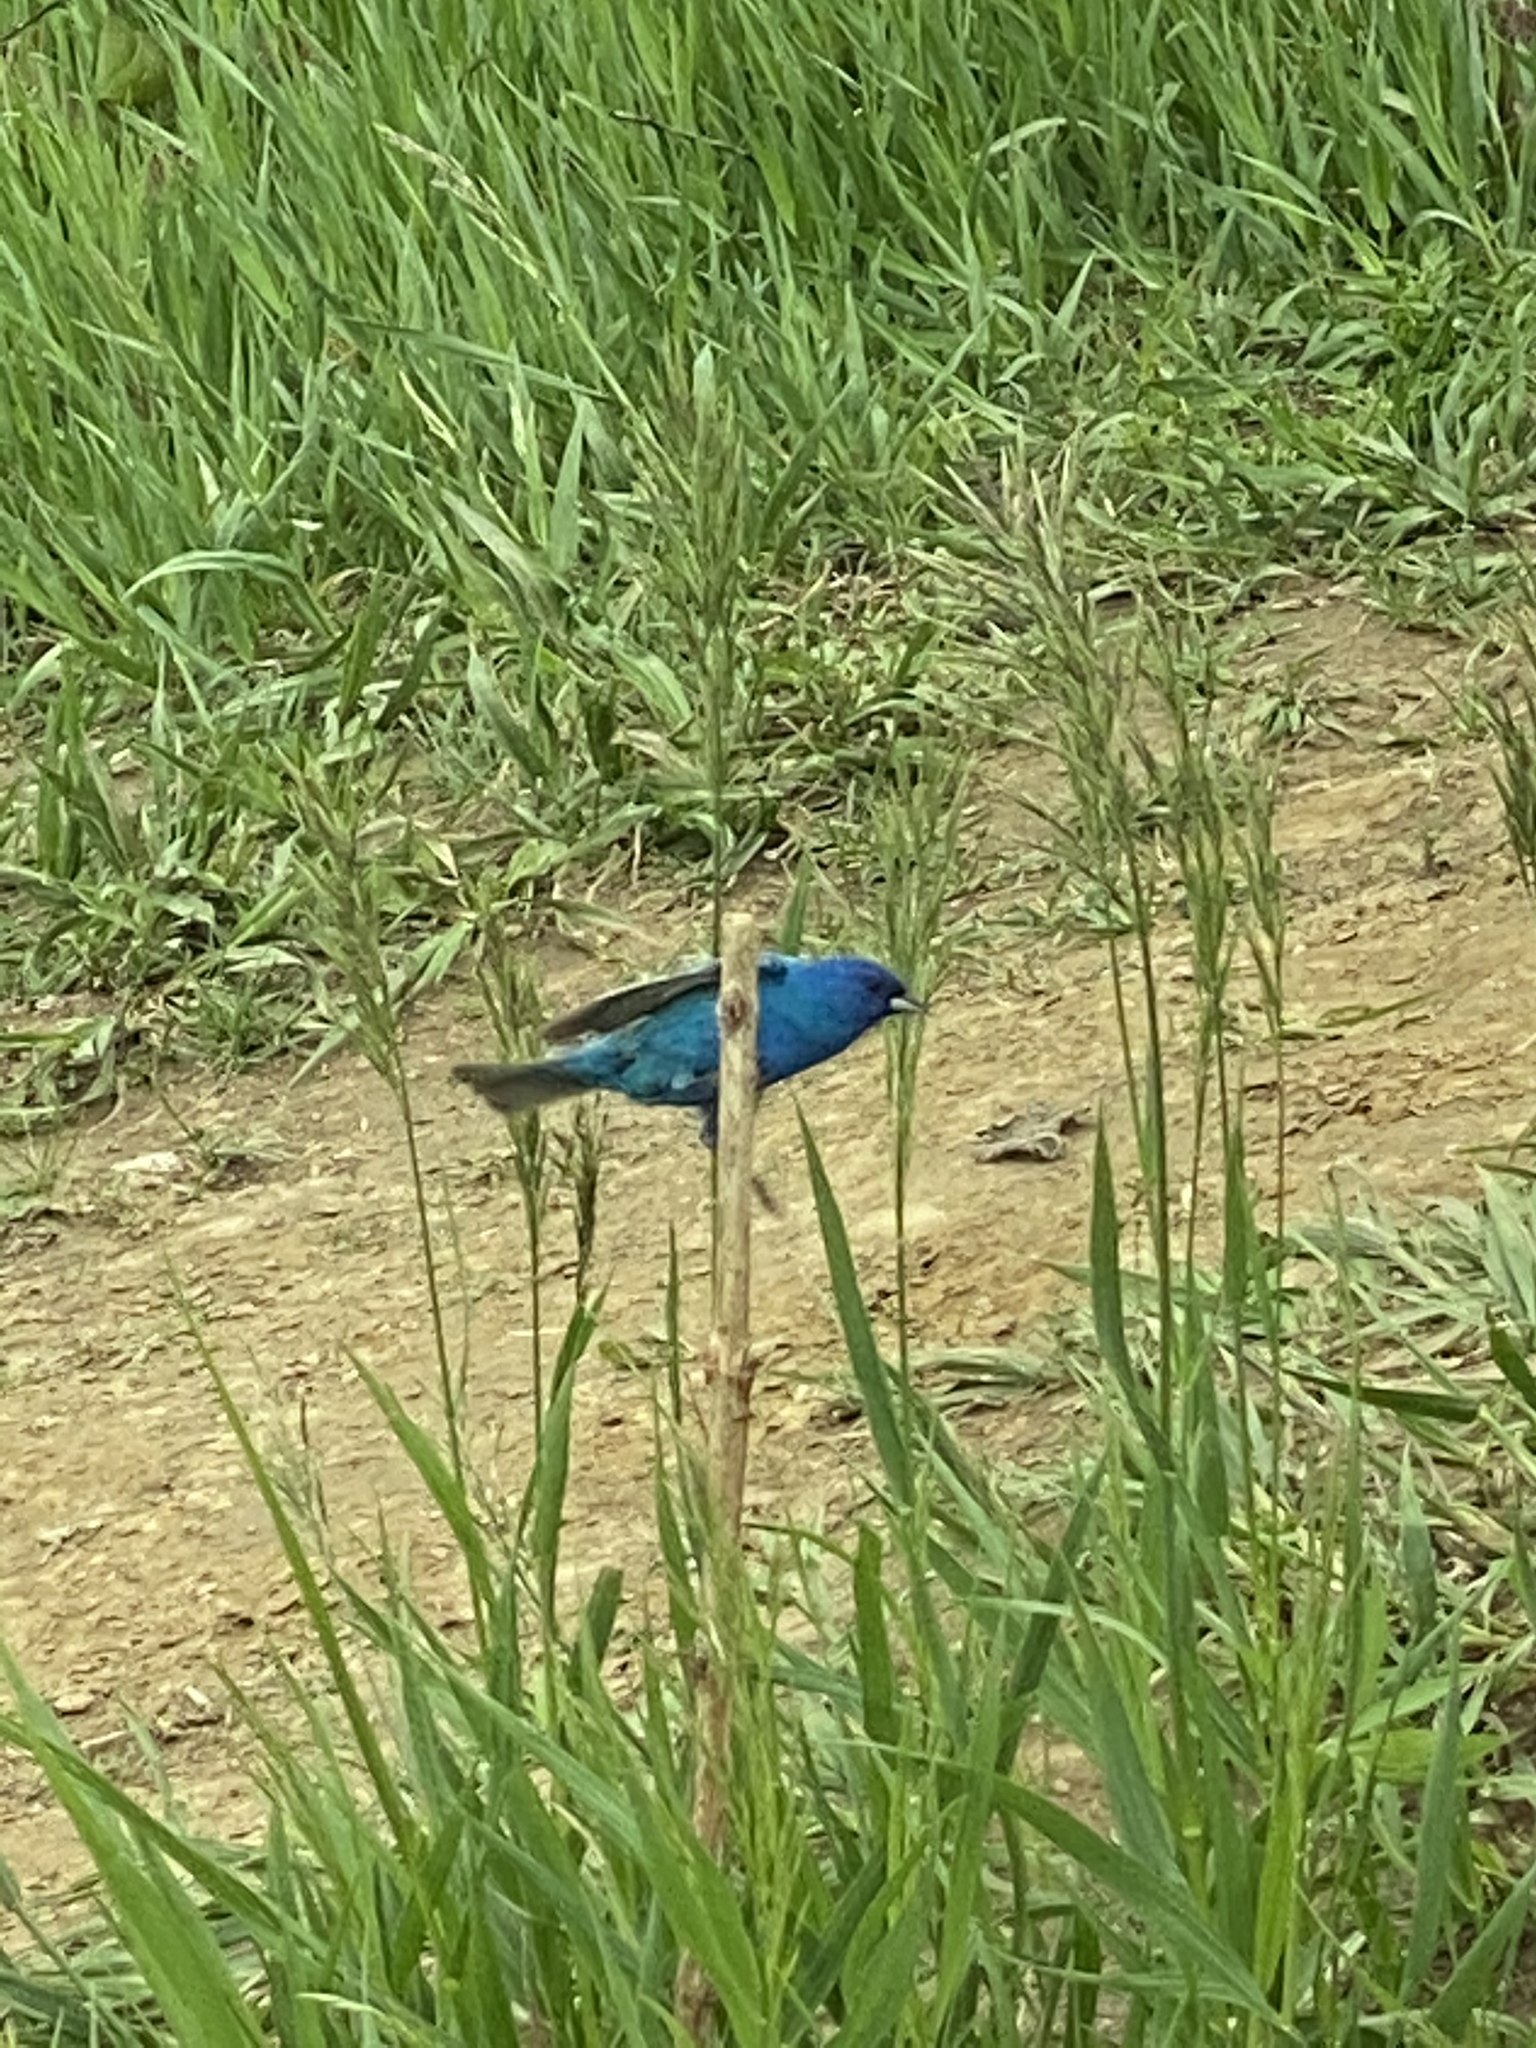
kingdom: Animalia
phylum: Chordata
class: Aves
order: Passeriformes
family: Cardinalidae
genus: Passerina
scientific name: Passerina cyanea
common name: Indigo bunting
